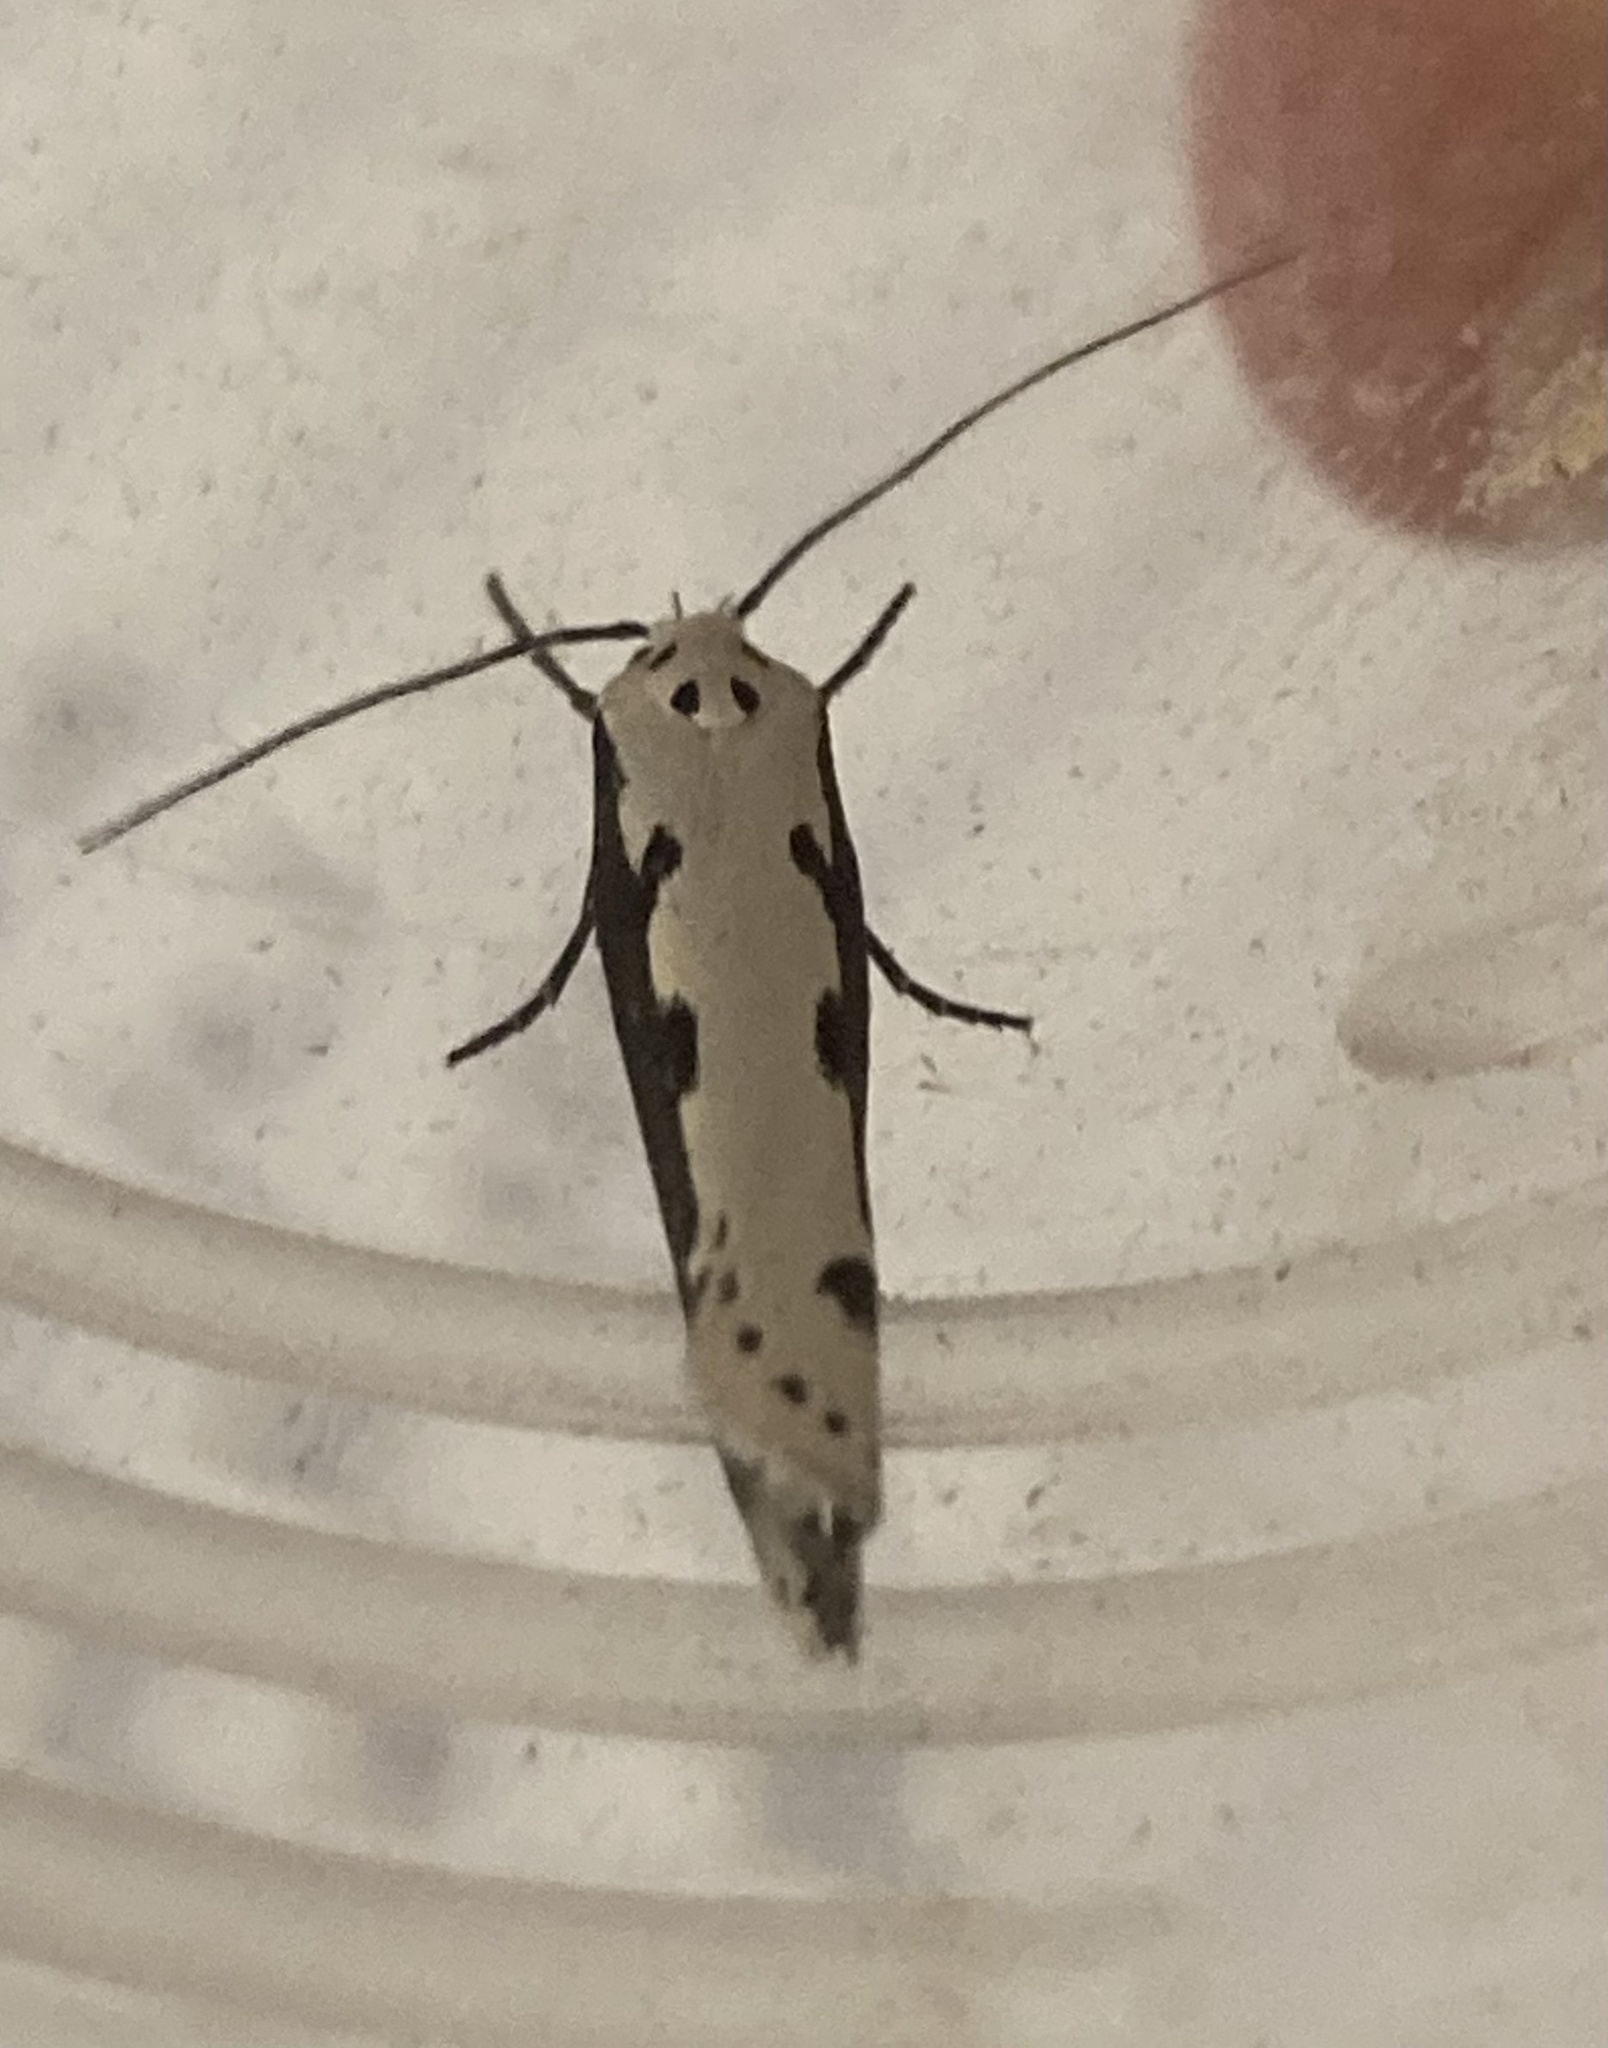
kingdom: Animalia
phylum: Arthropoda
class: Insecta
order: Lepidoptera
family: Ethmiidae
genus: Ethmia
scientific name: Ethmia bipunctella
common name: Bordered ermel
